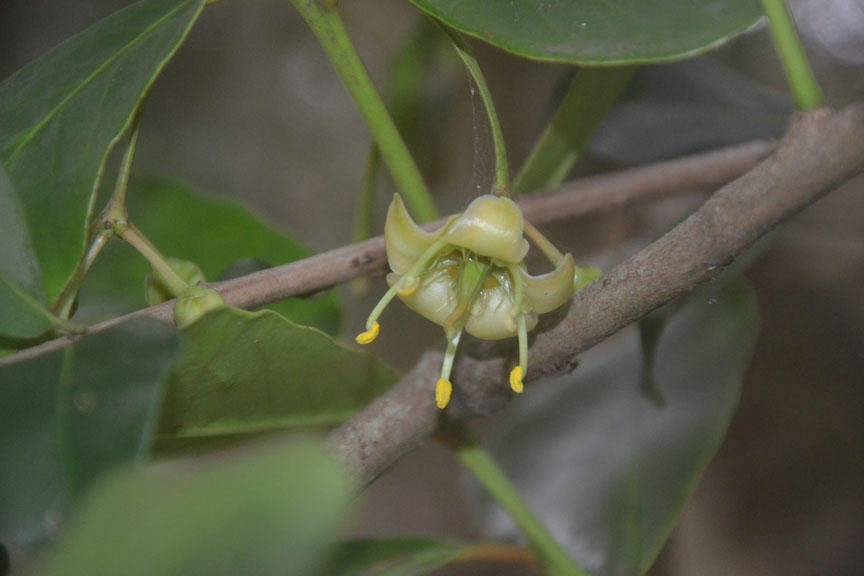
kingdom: Plantae
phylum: Tracheophyta
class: Magnoliopsida
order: Celastrales
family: Celastraceae
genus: Brexia
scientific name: Brexia madagascariensis
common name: Brexia
